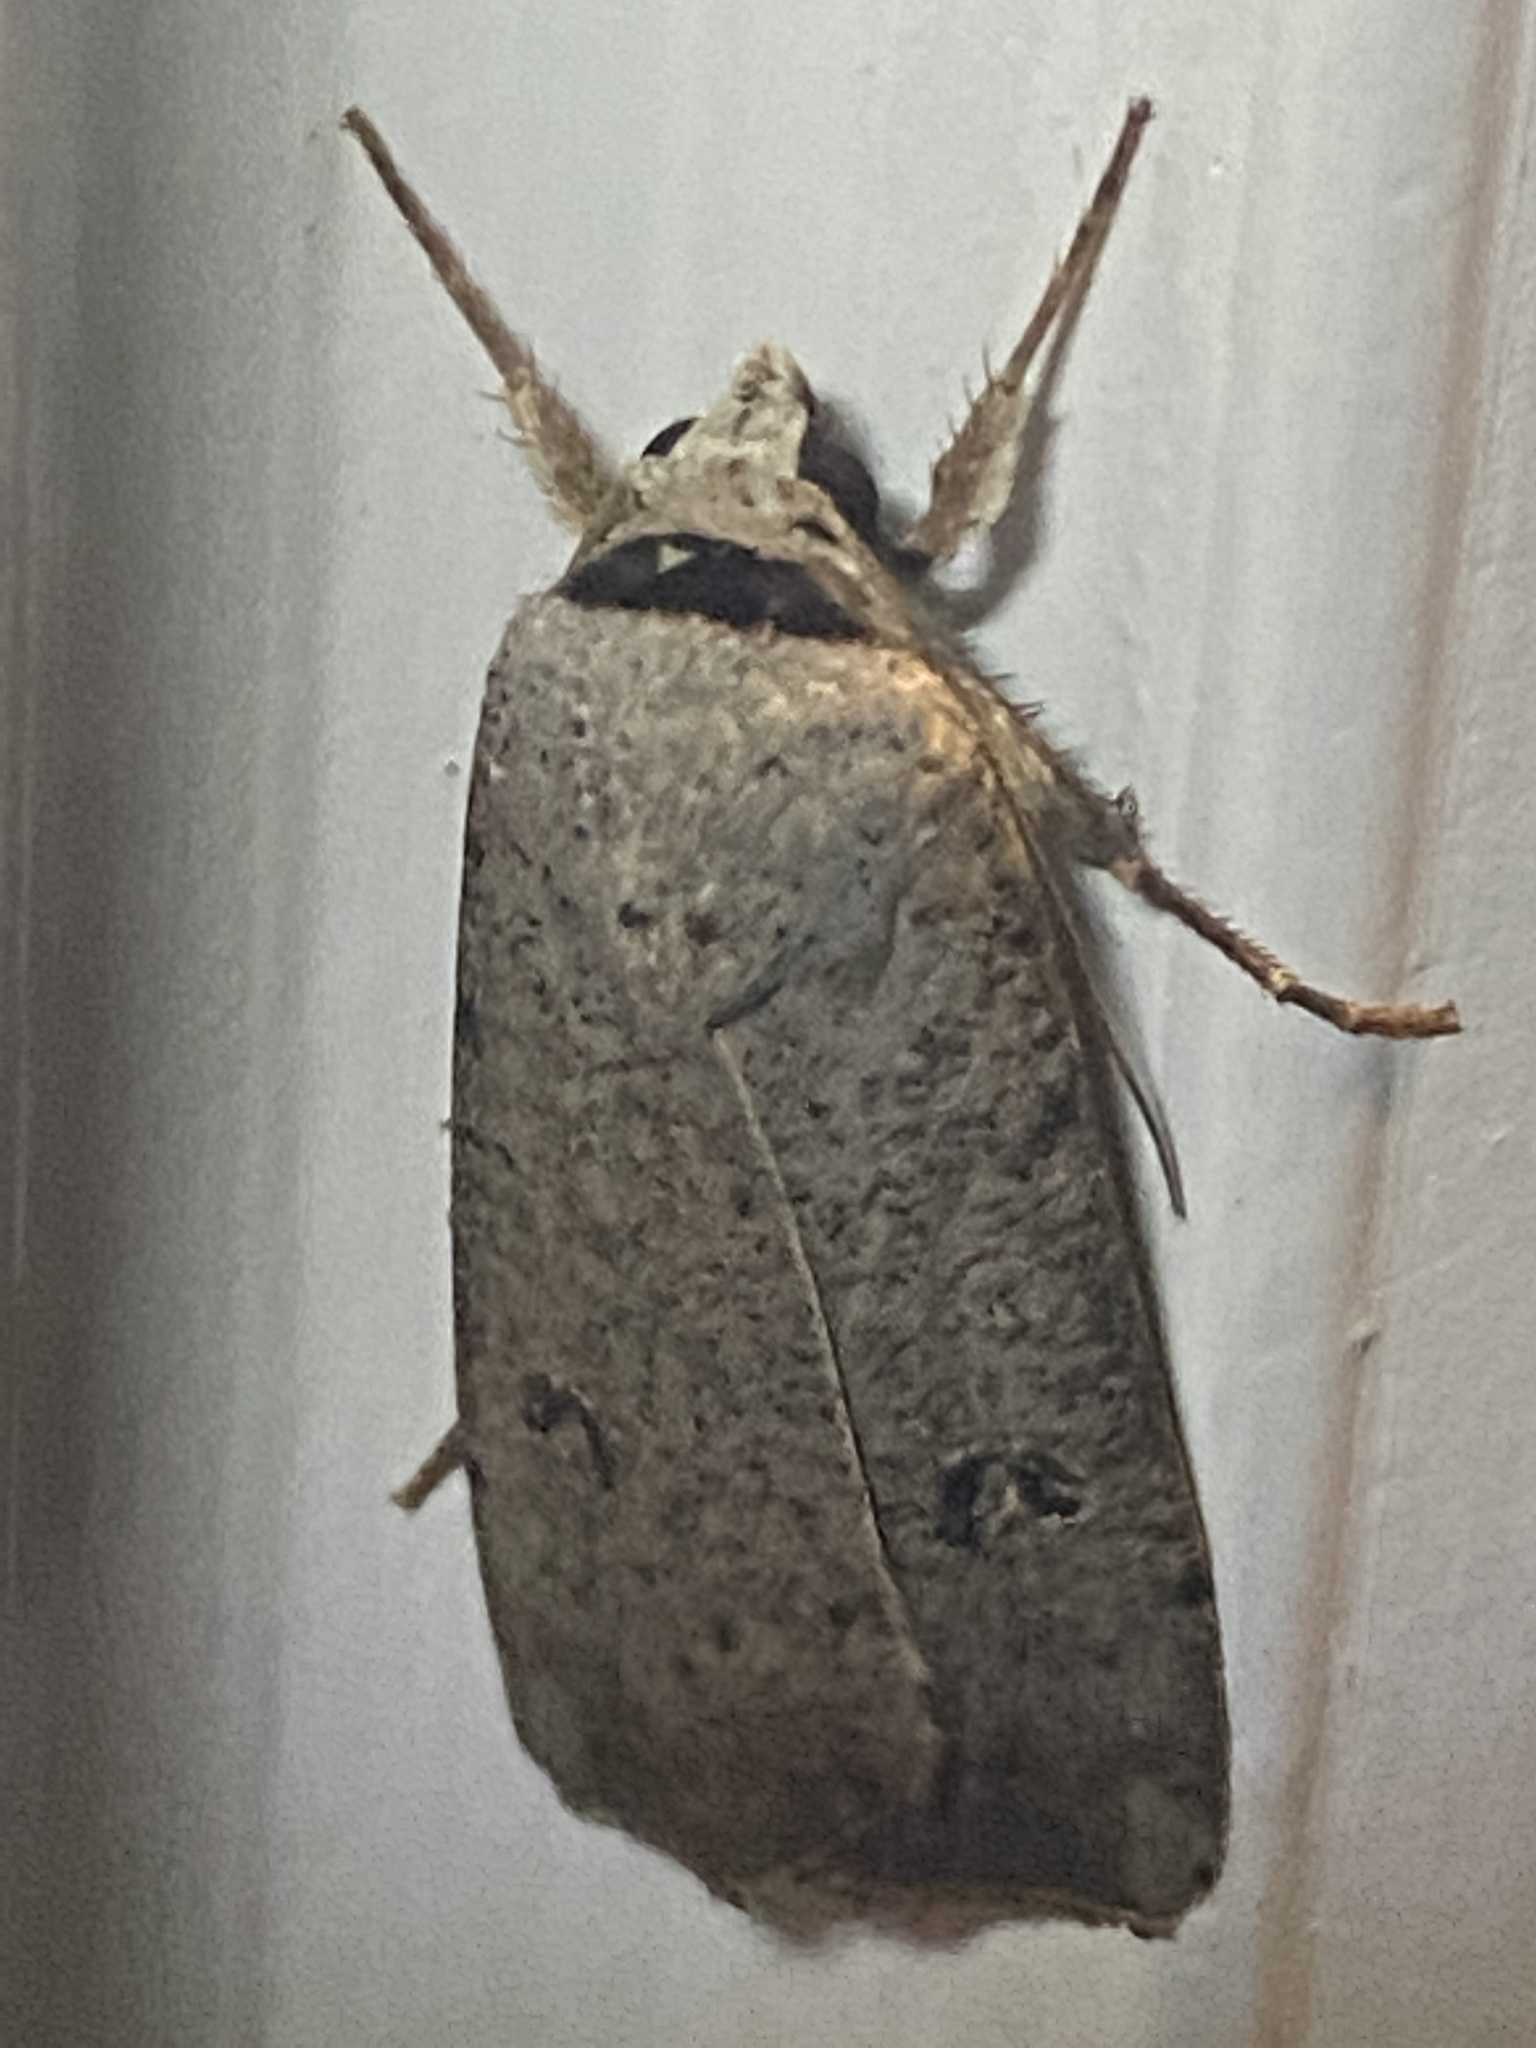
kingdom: Animalia
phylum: Arthropoda
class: Insecta
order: Lepidoptera
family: Noctuidae
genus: Anicla
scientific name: Anicla infecta
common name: Green cutworm
